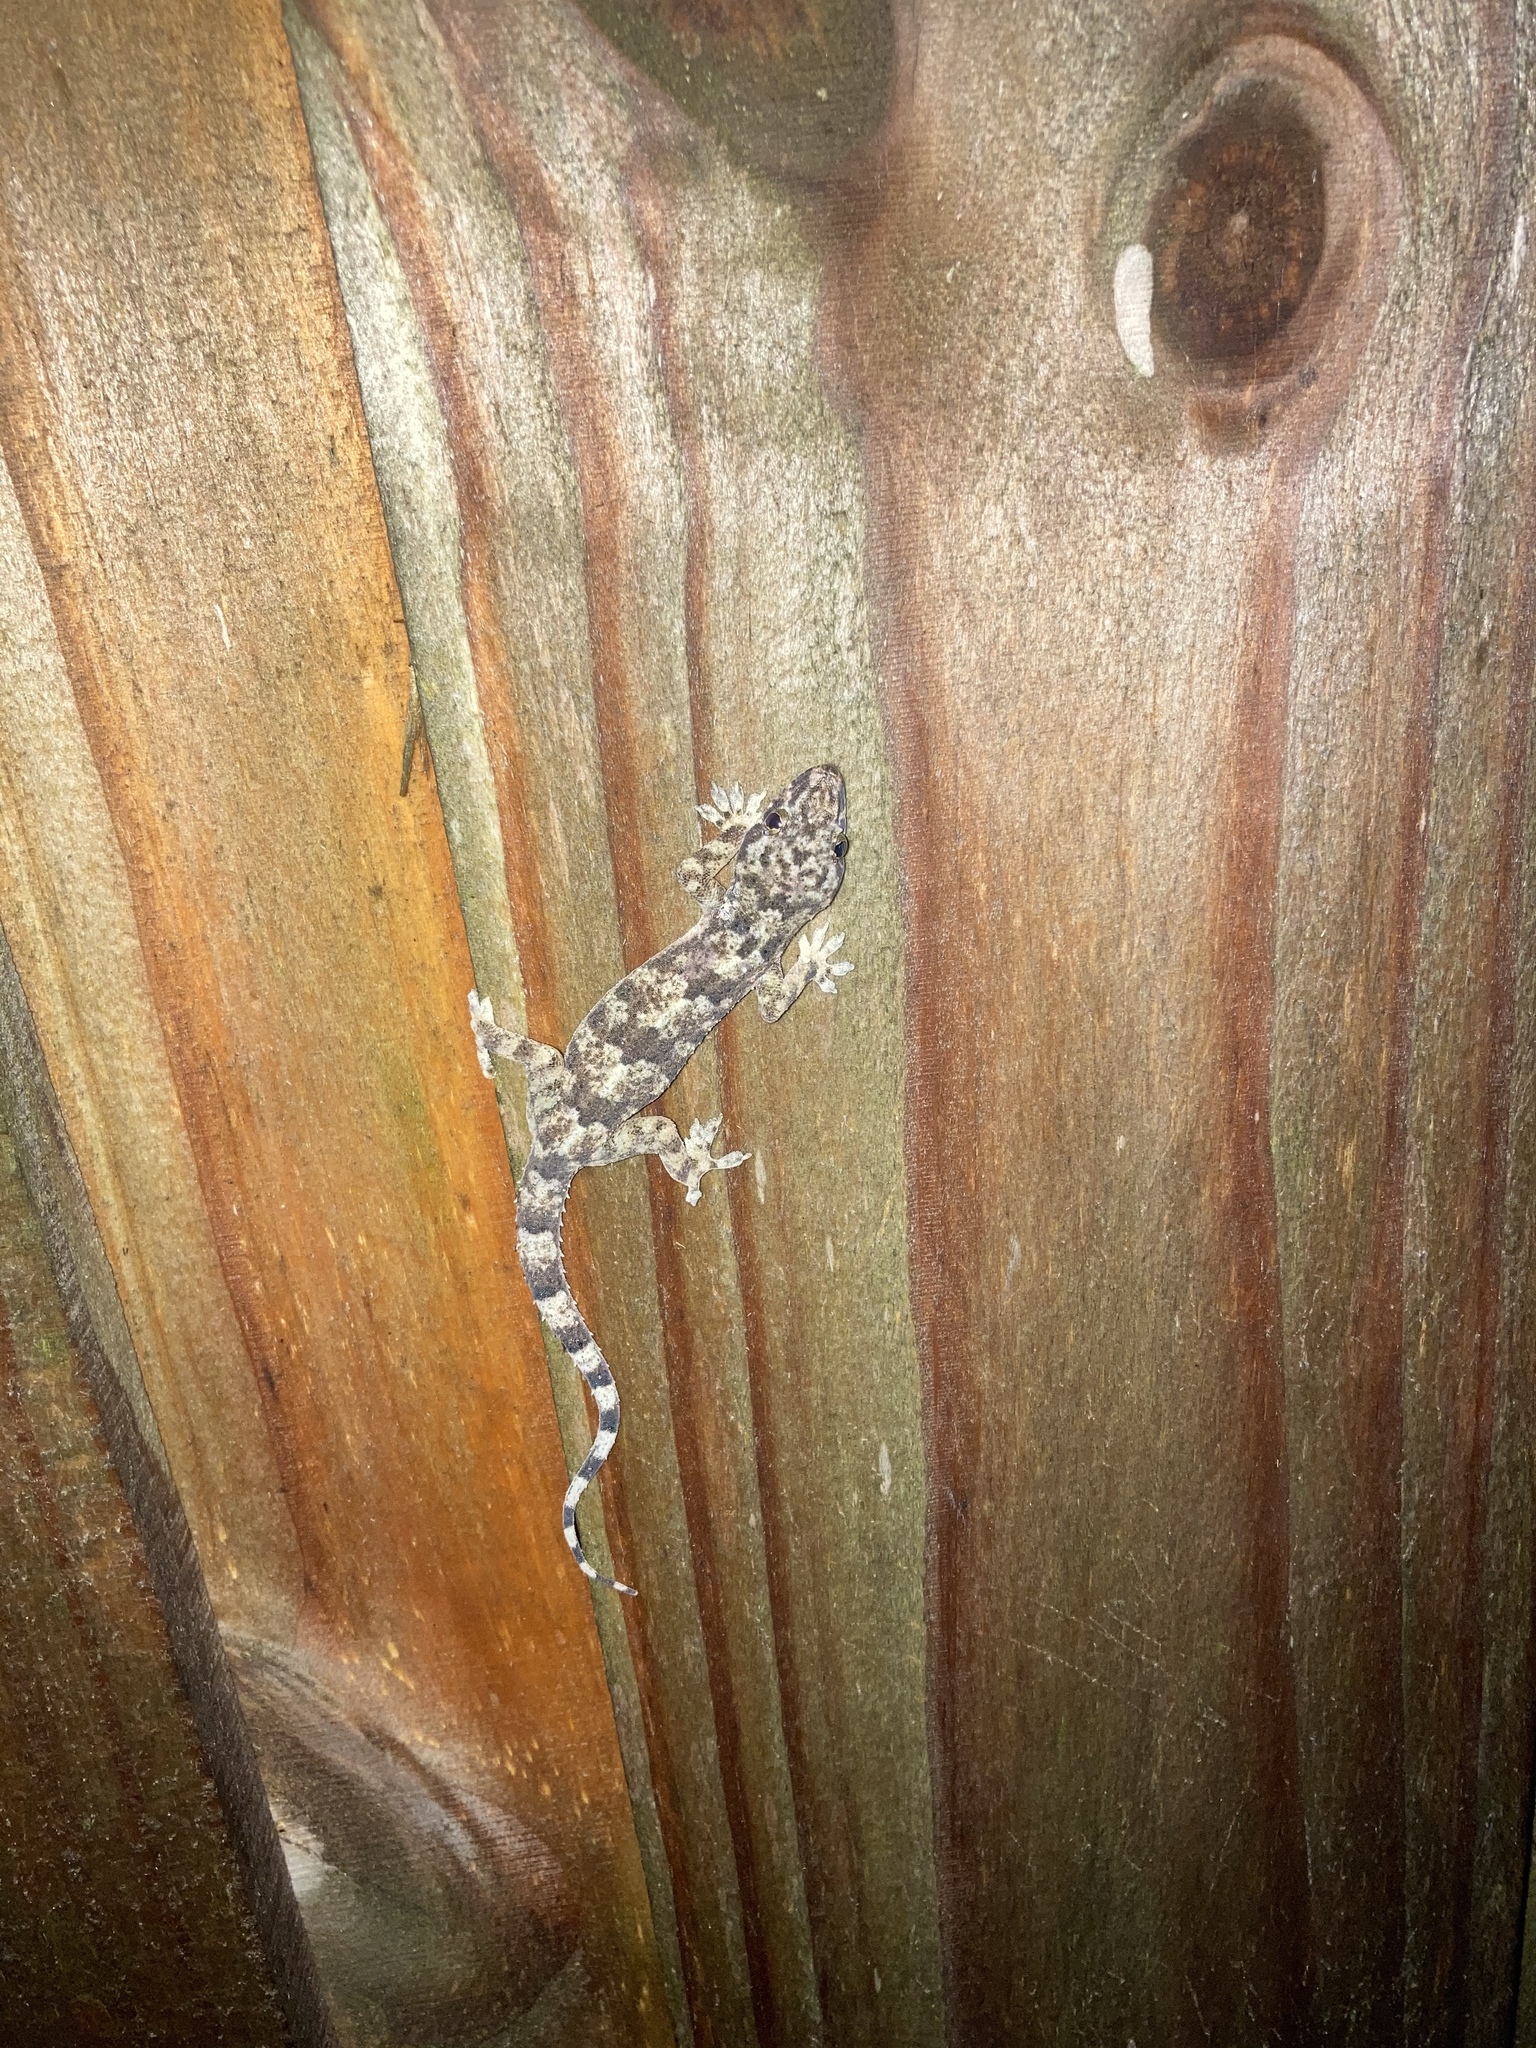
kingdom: Animalia
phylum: Chordata
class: Squamata
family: Gekkonidae
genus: Hemidactylus
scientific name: Hemidactylus mabouia
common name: House gecko
